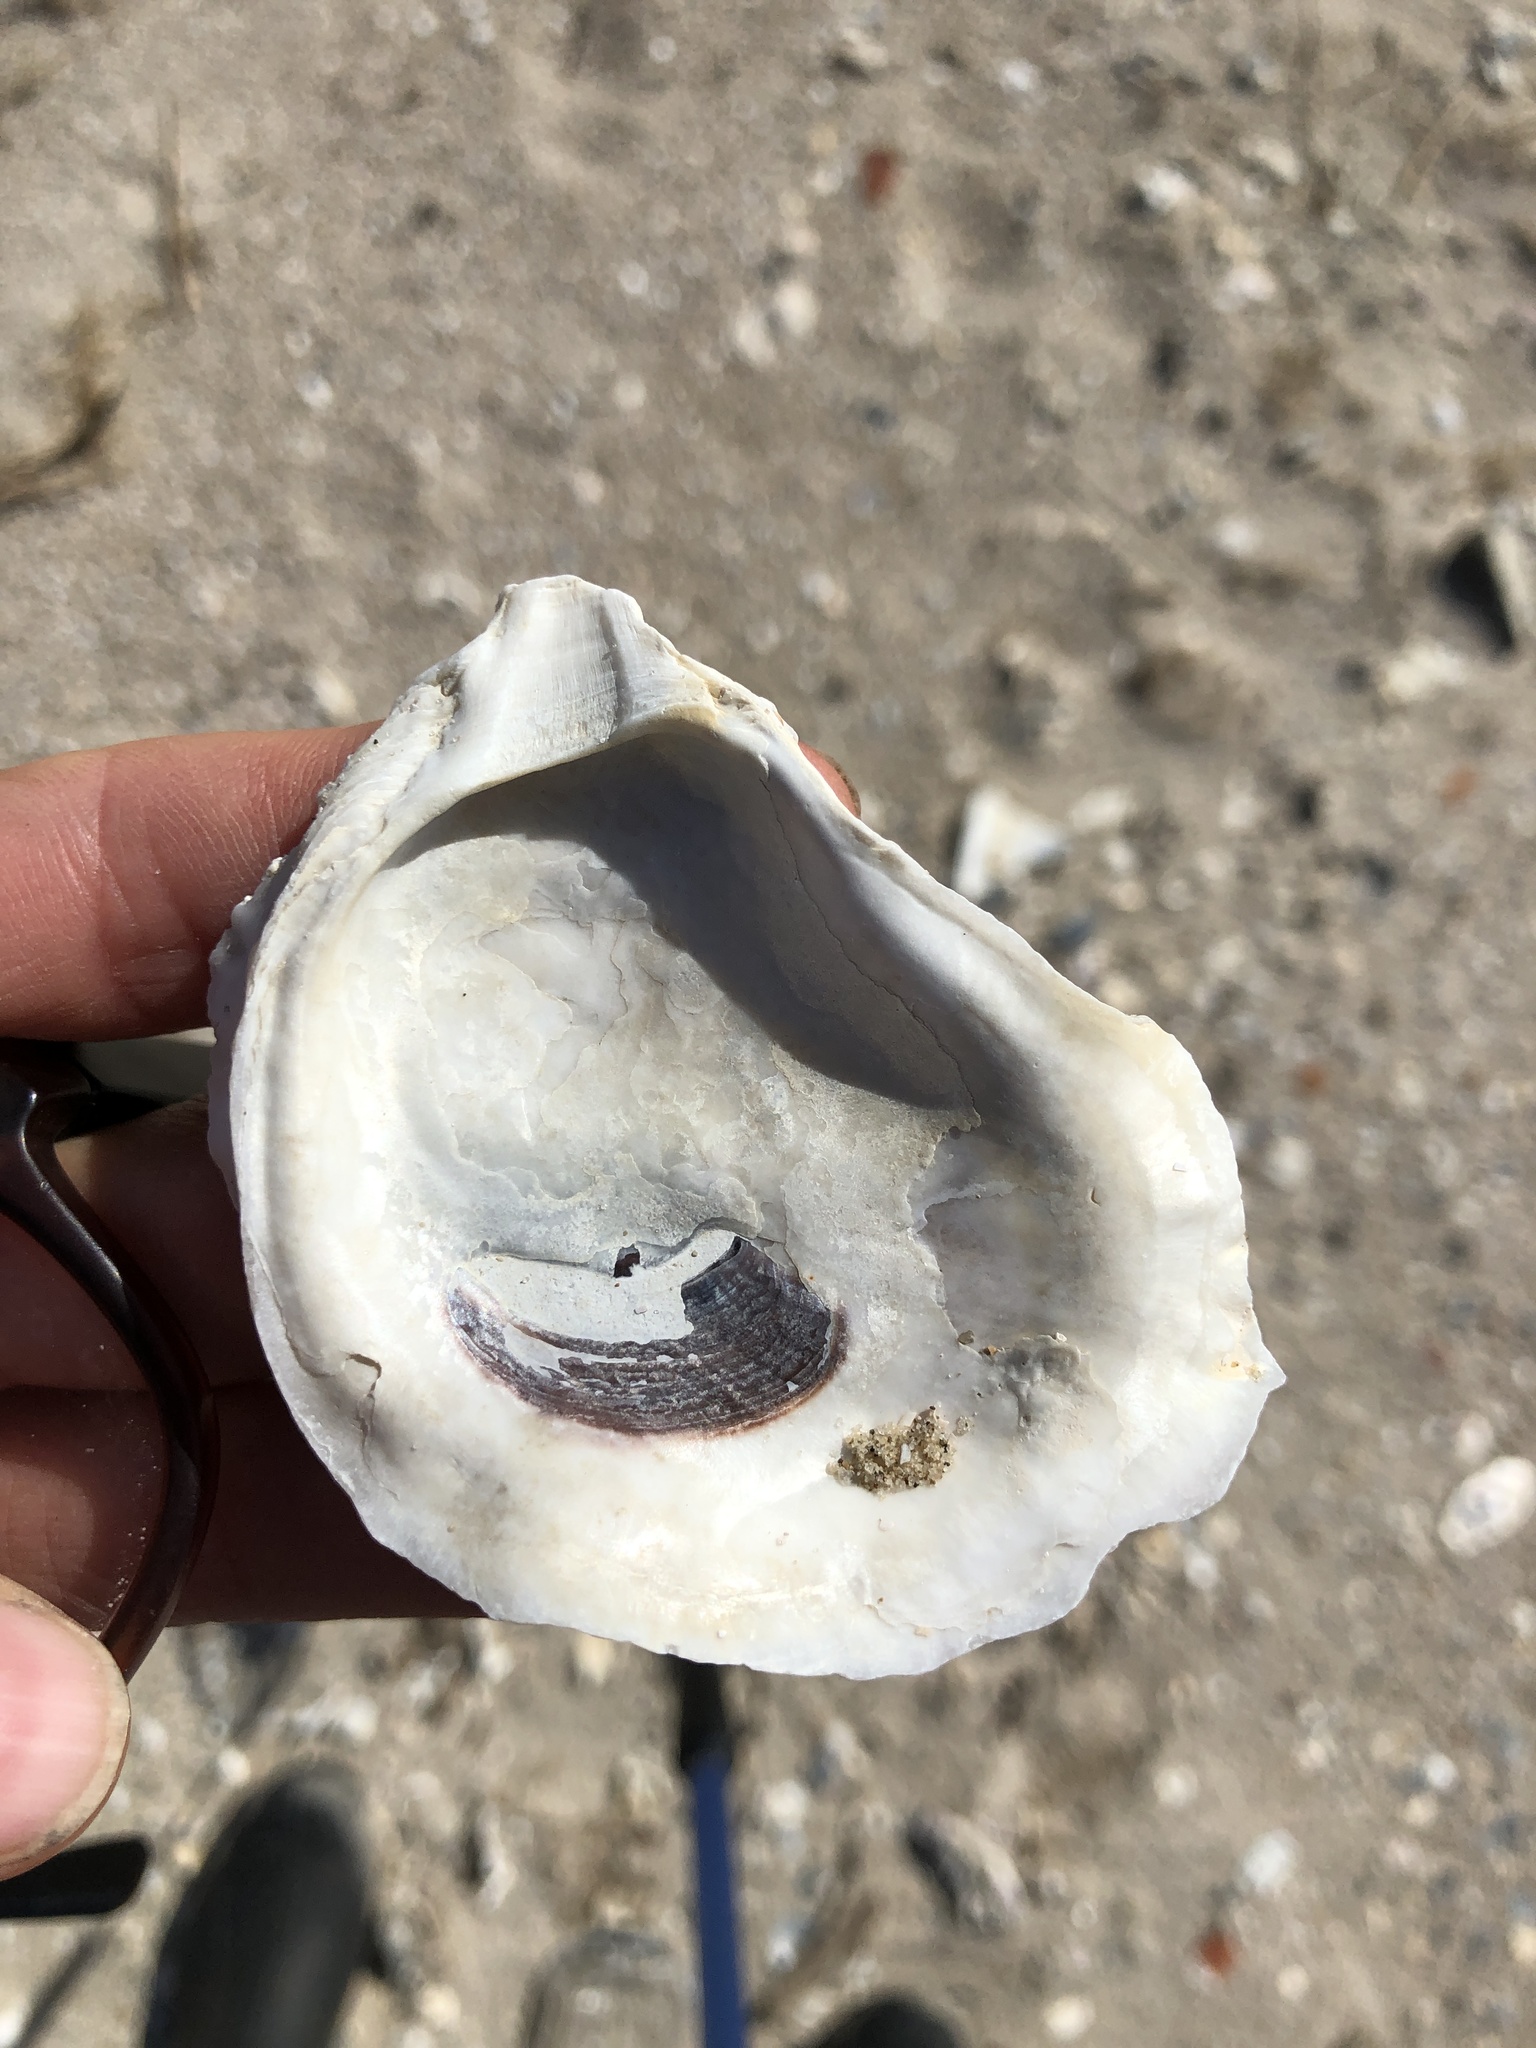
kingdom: Animalia
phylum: Mollusca
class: Bivalvia
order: Ostreida
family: Ostreidae
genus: Crassostrea
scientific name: Crassostrea virginica
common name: American oyster
